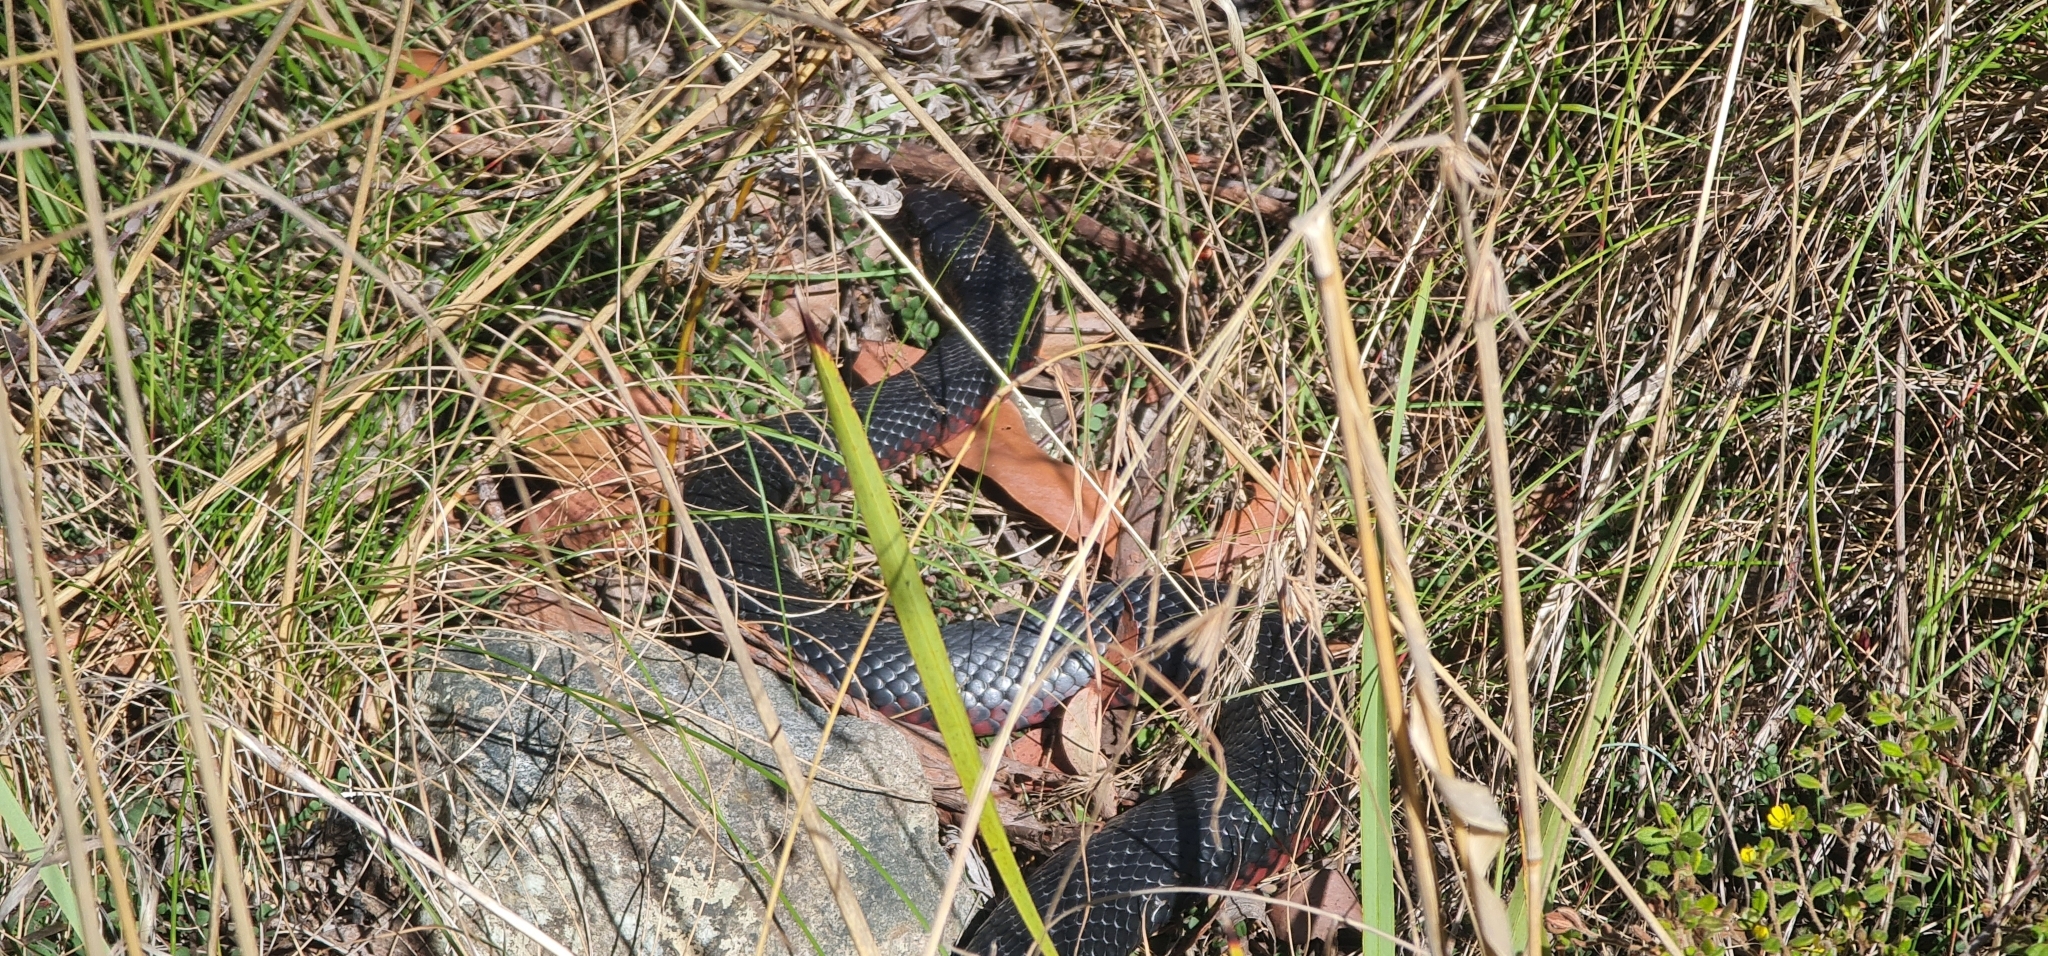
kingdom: Animalia
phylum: Chordata
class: Squamata
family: Elapidae
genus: Pseudechis
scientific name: Pseudechis porphyriacus
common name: Australian black snake
